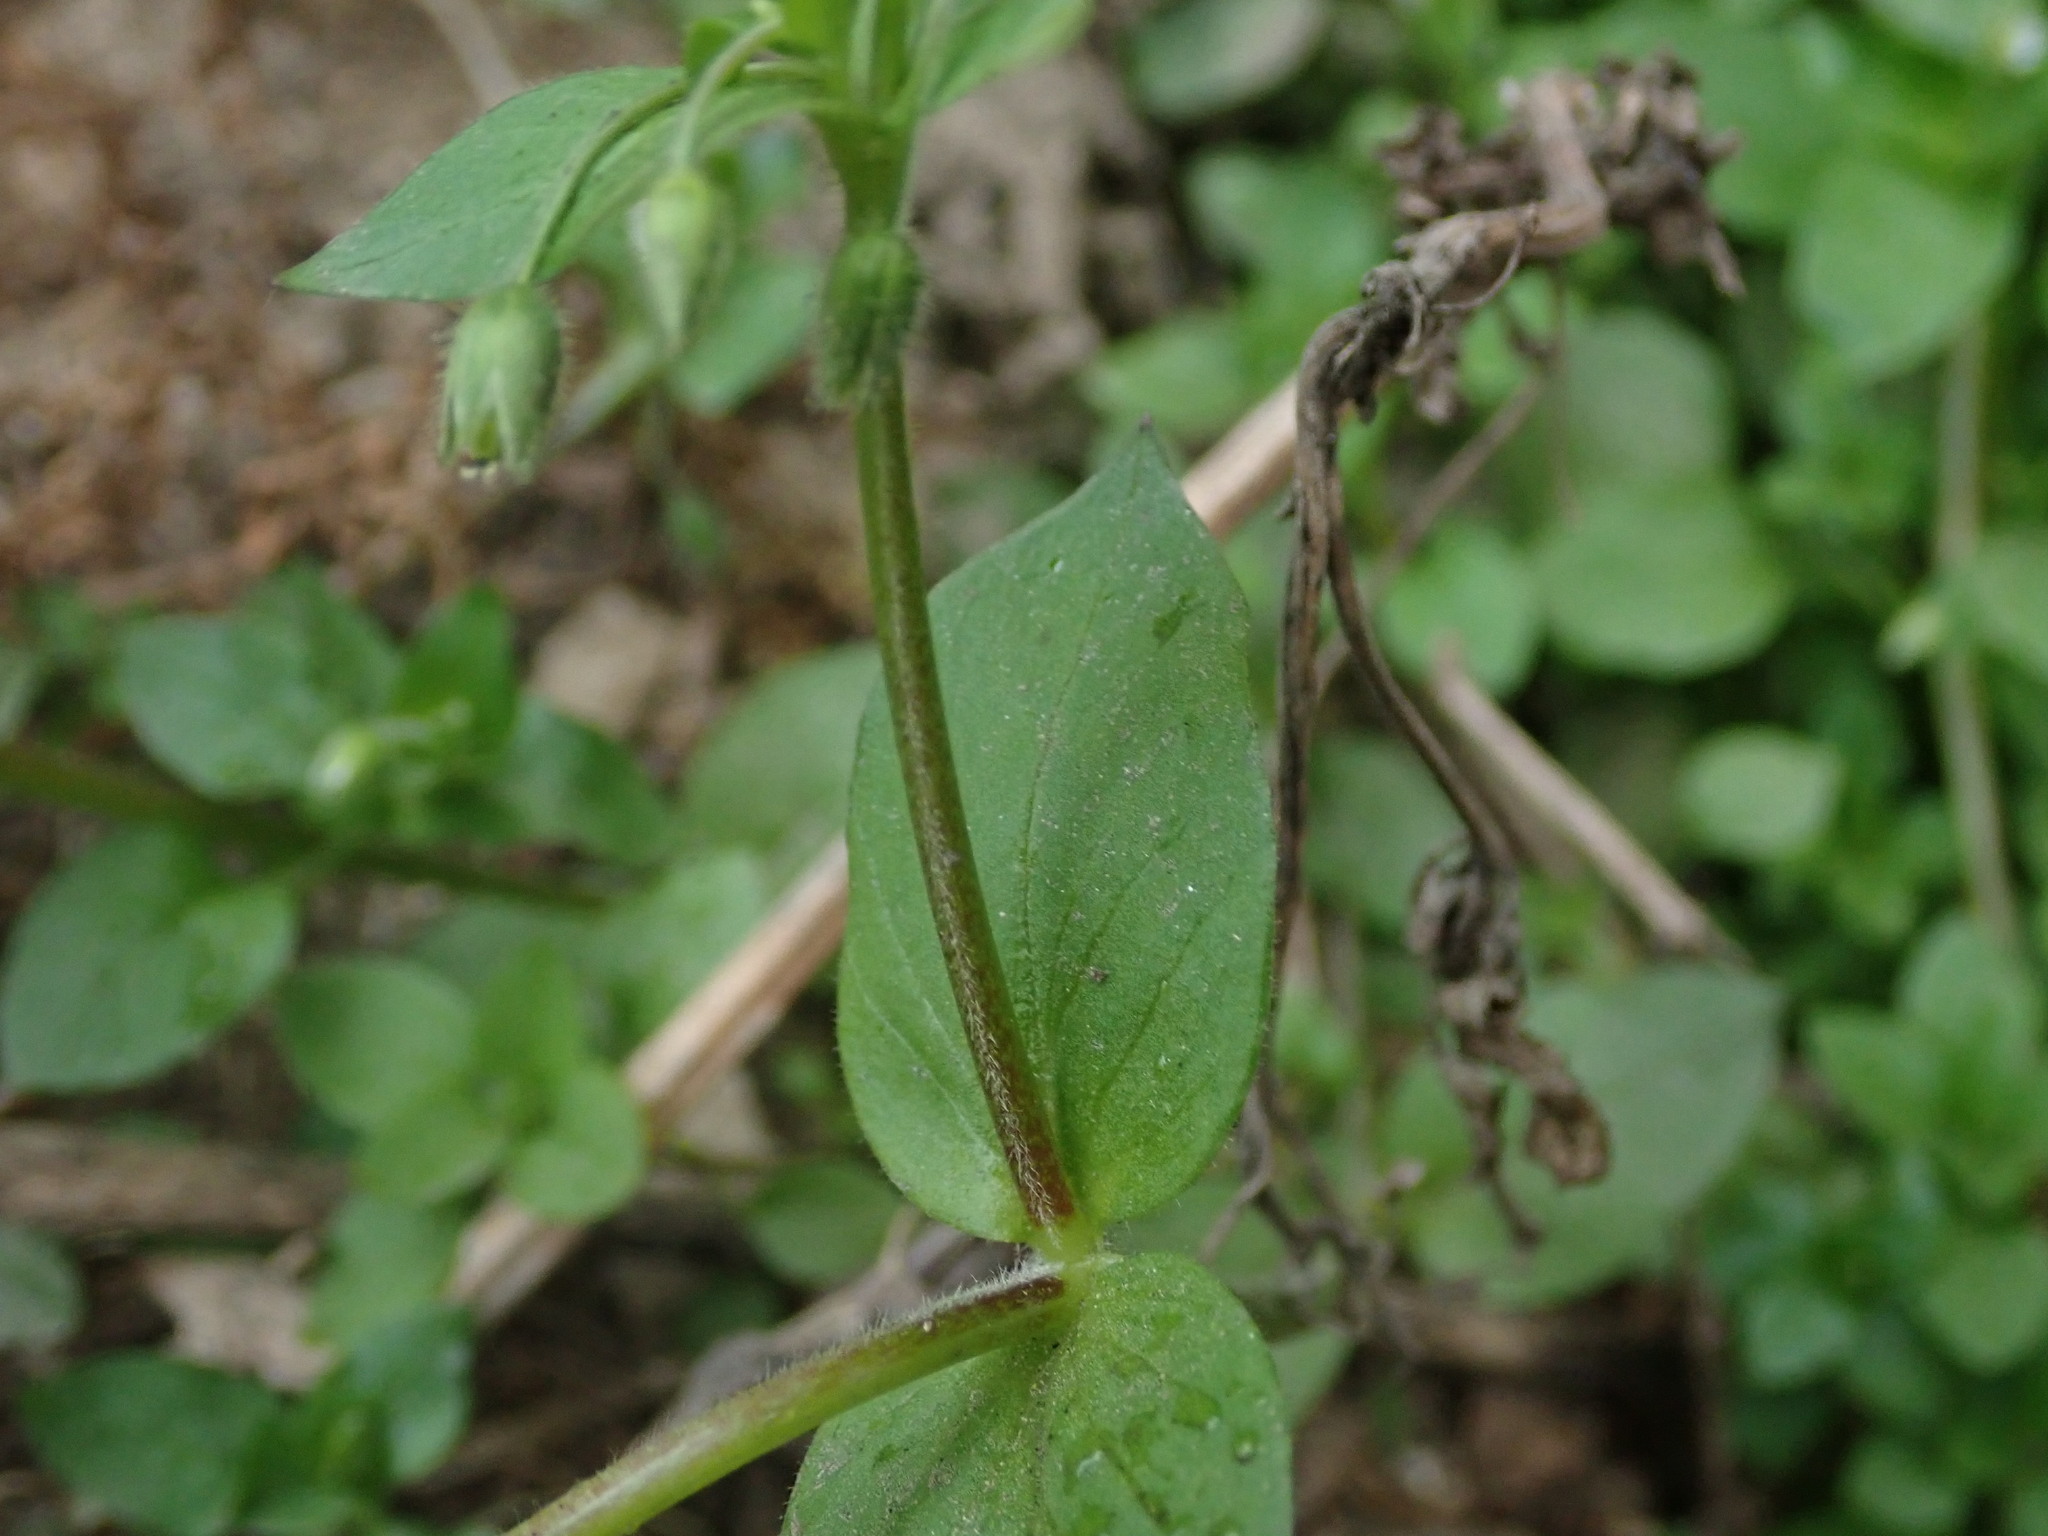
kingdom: Plantae
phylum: Tracheophyta
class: Magnoliopsida
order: Caryophyllales
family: Caryophyllaceae
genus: Stellaria
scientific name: Stellaria media
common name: Common chickweed
